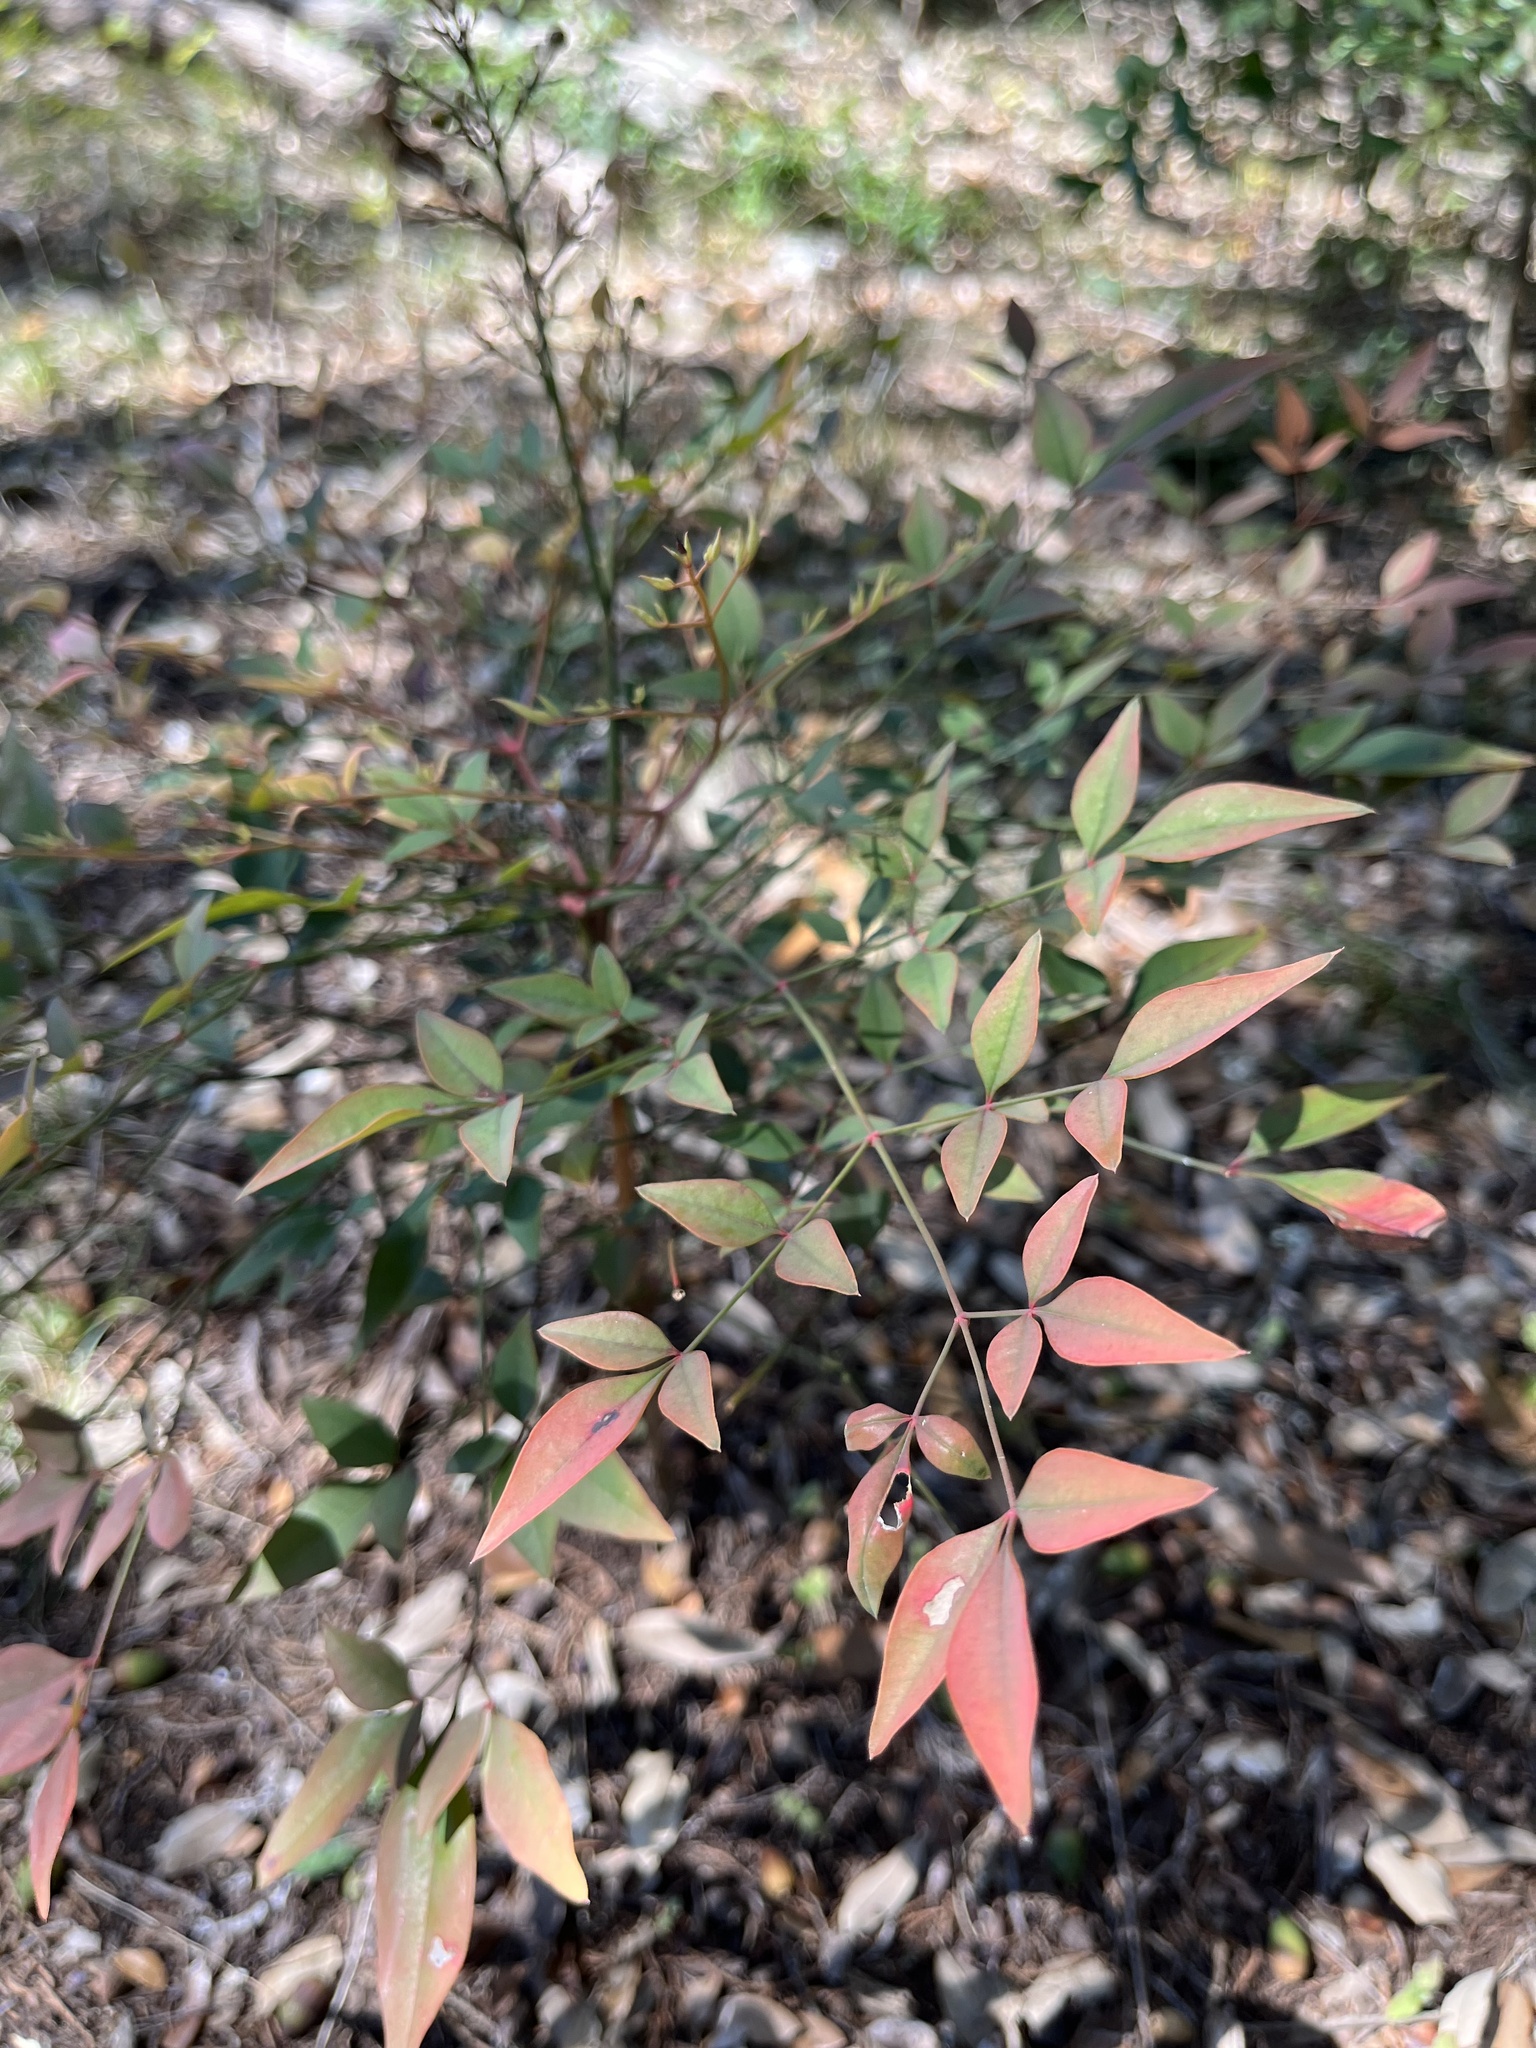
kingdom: Plantae
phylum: Tracheophyta
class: Magnoliopsida
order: Ranunculales
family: Berberidaceae
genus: Nandina
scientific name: Nandina domestica
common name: Sacred bamboo
